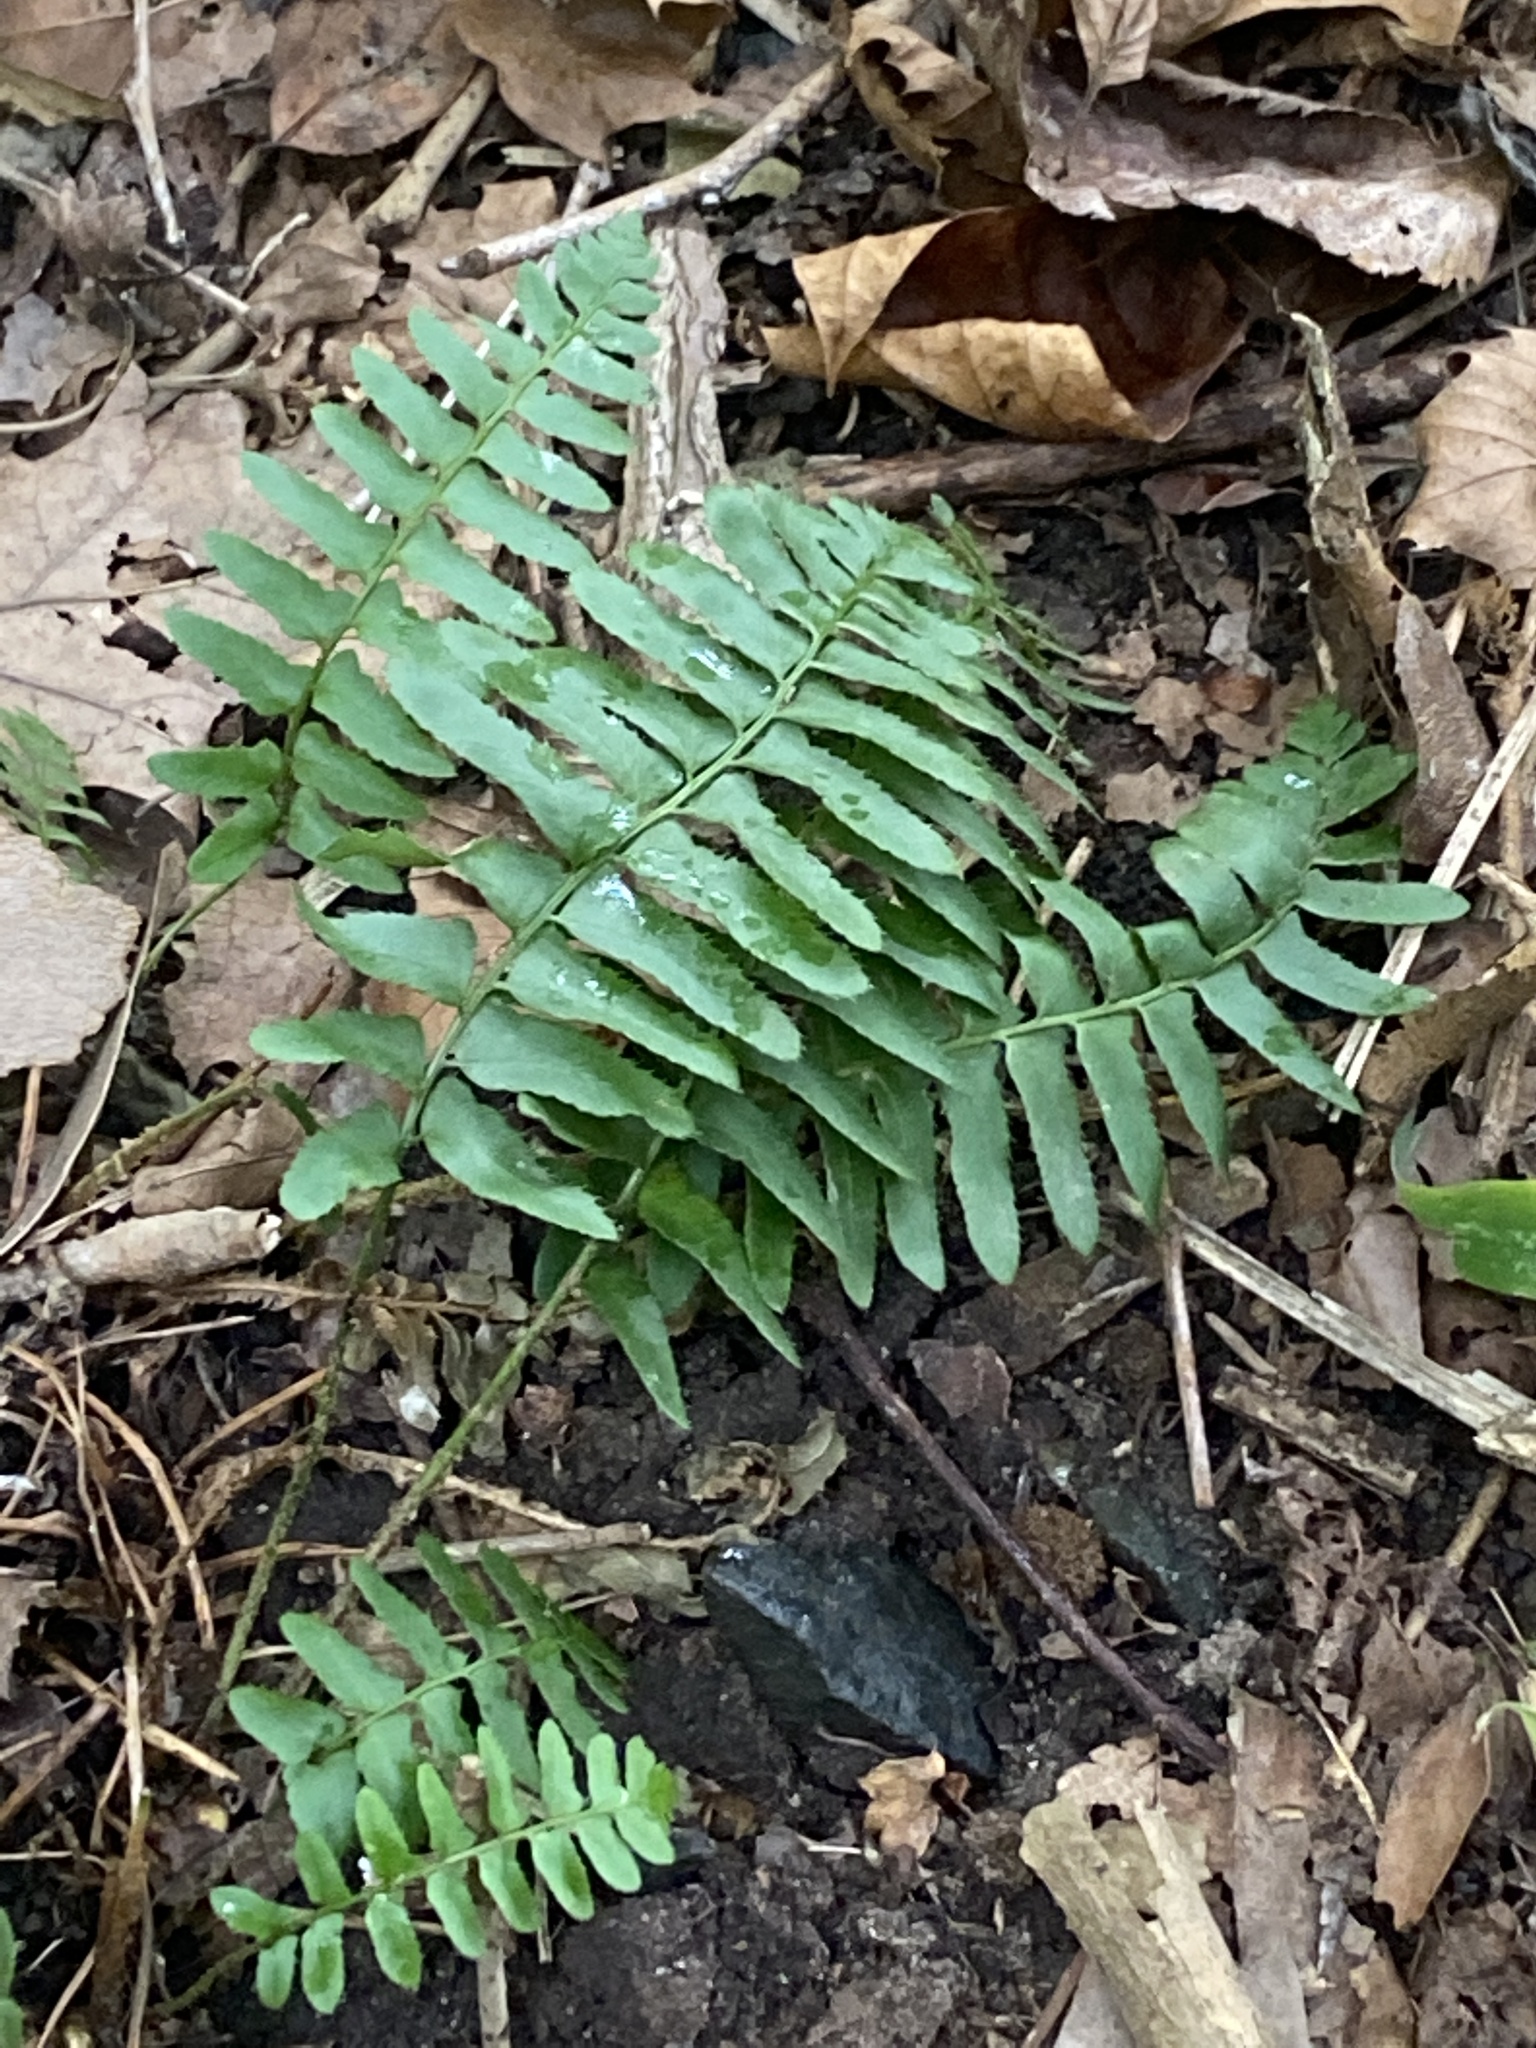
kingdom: Plantae
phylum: Tracheophyta
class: Polypodiopsida
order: Polypodiales
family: Dryopteridaceae
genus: Polystichum
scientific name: Polystichum acrostichoides
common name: Christmas fern
